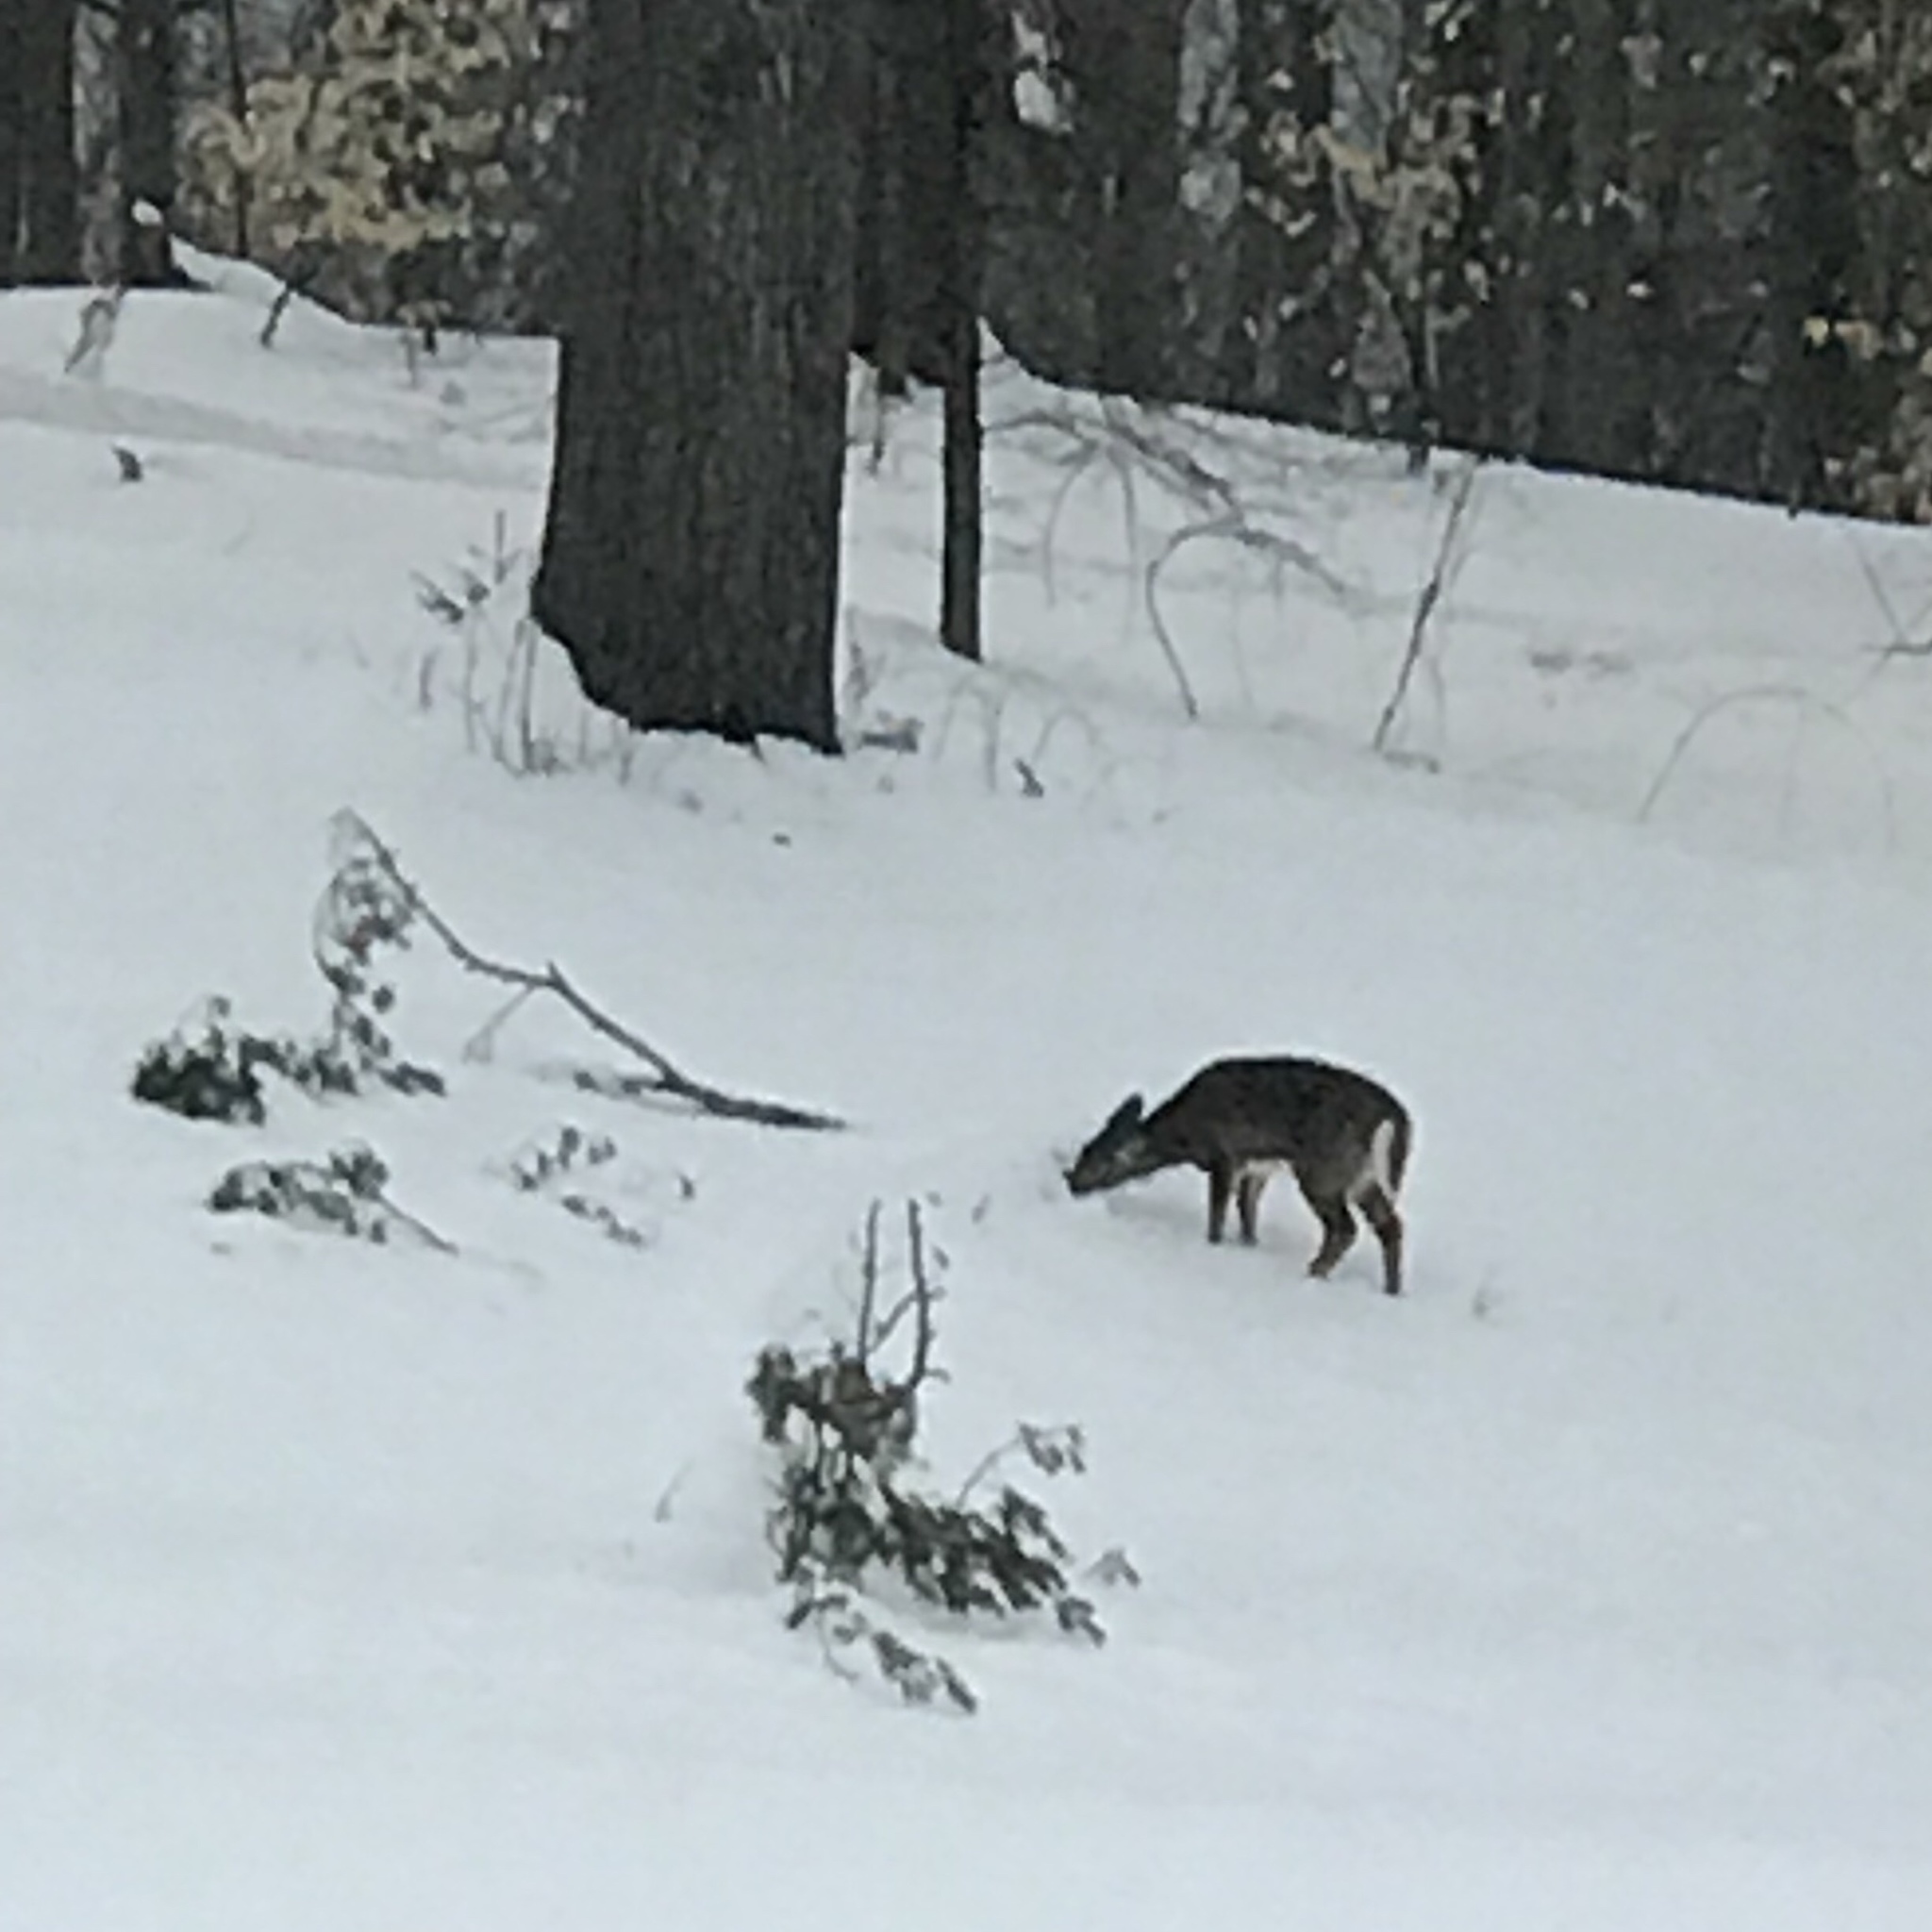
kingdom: Animalia
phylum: Chordata
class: Mammalia
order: Artiodactyla
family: Cervidae
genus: Odocoileus
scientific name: Odocoileus virginianus
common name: White-tailed deer
